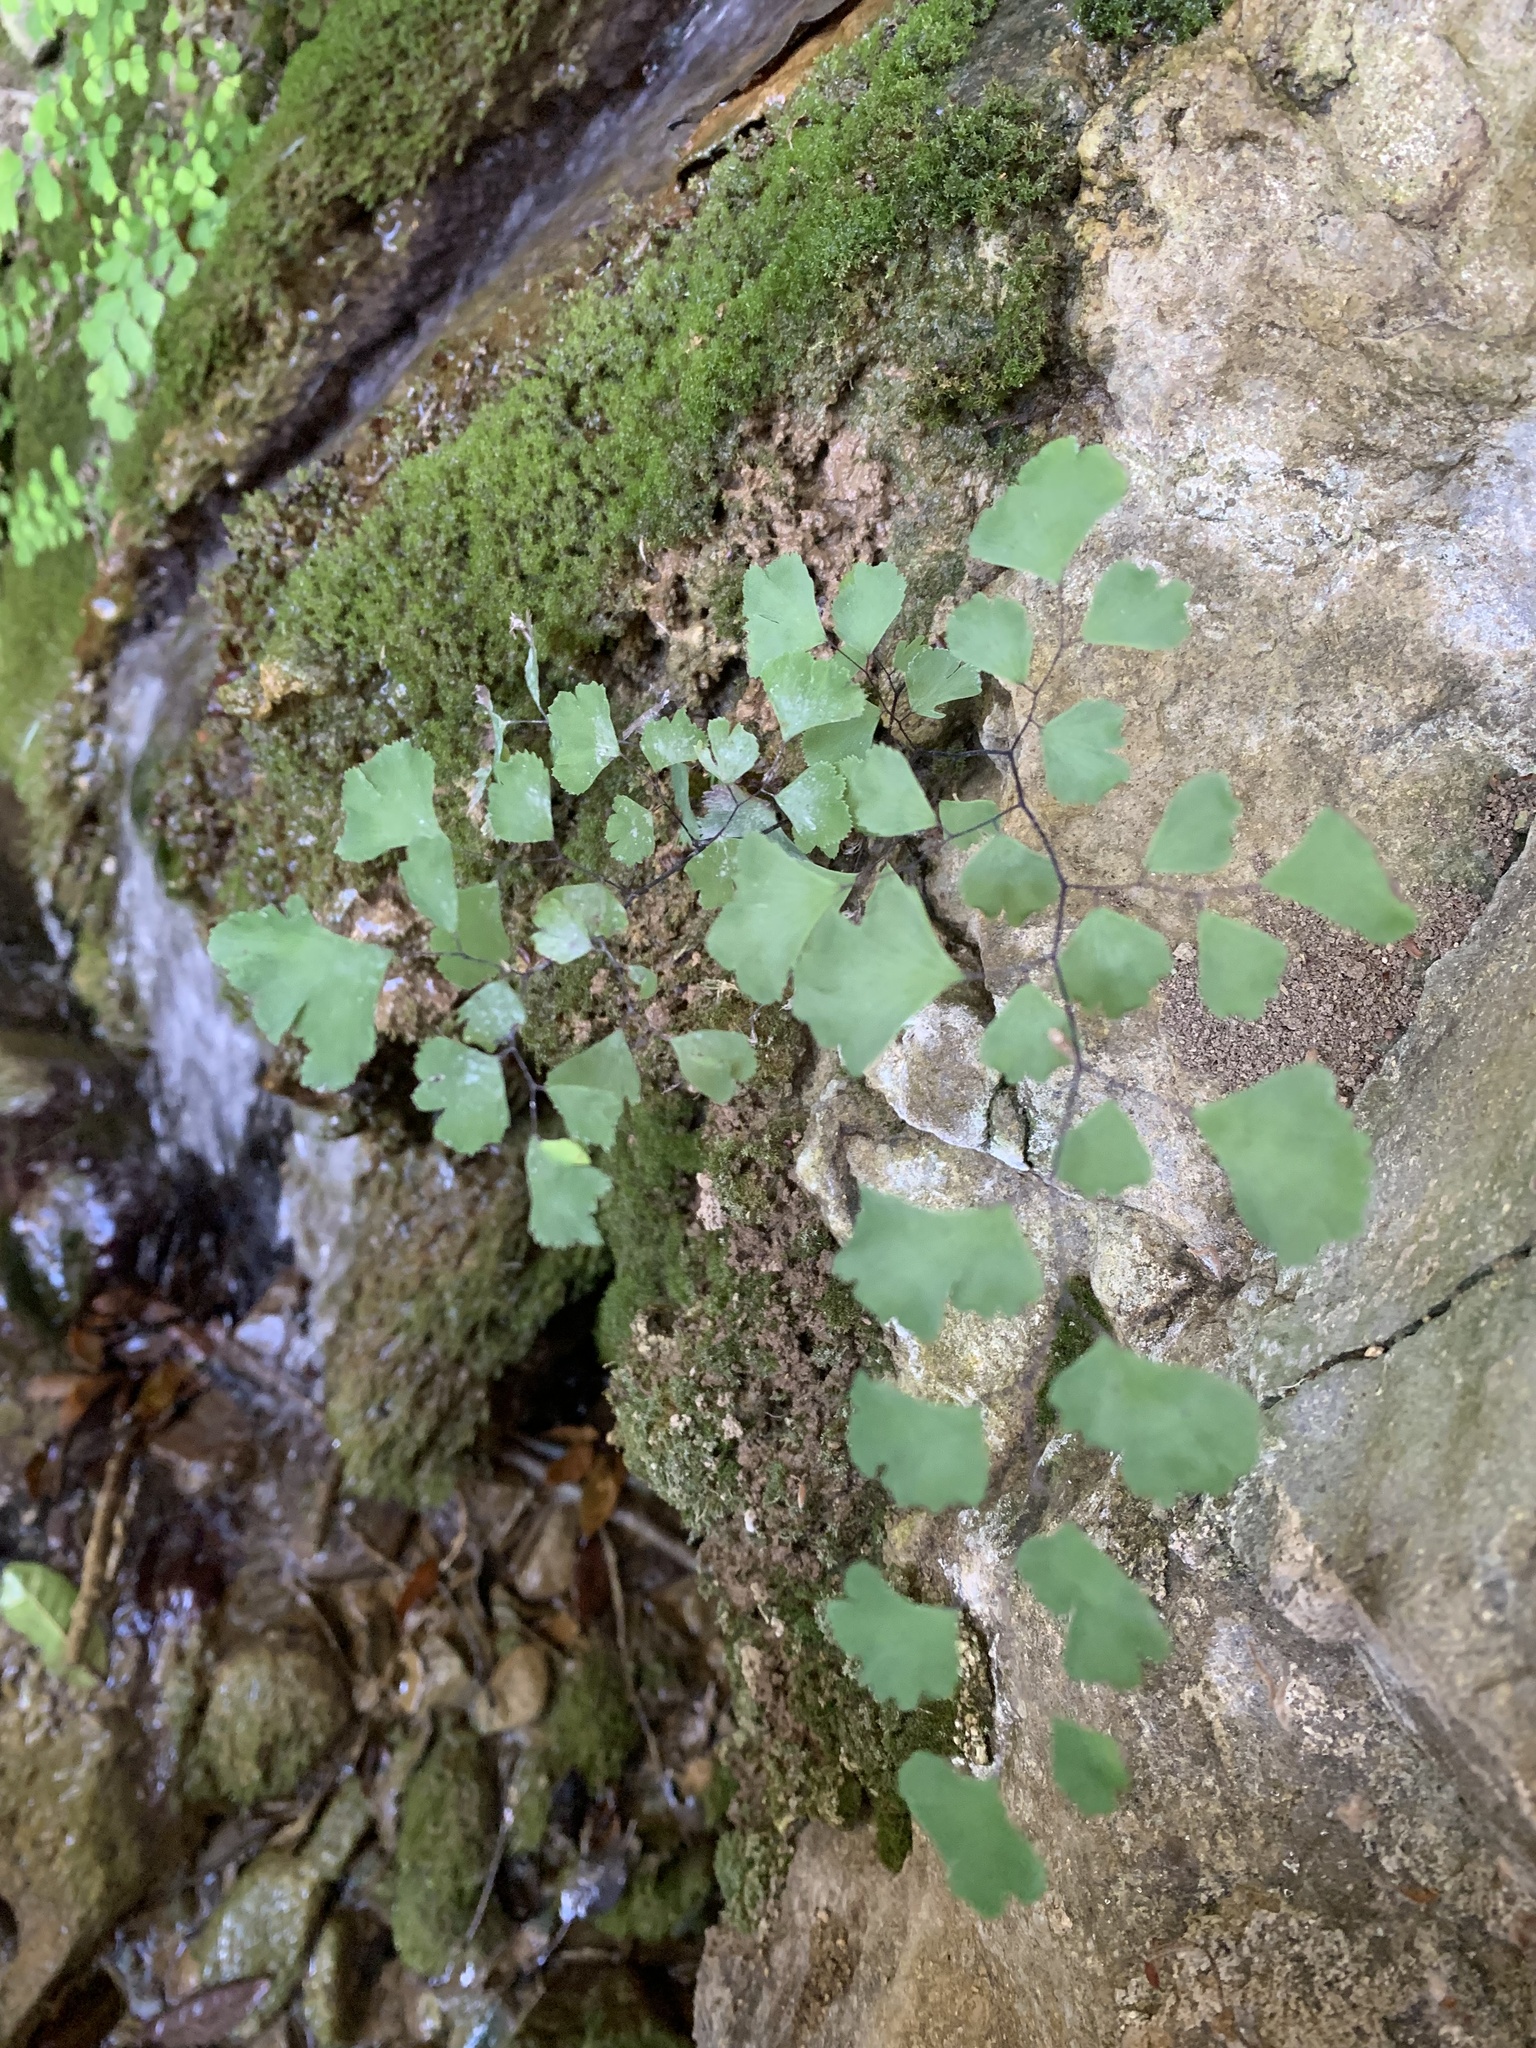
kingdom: Plantae
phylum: Tracheophyta
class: Polypodiopsida
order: Polypodiales
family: Pteridaceae
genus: Adiantum
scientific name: Adiantum capillus-veneris
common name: Maidenhair fern
